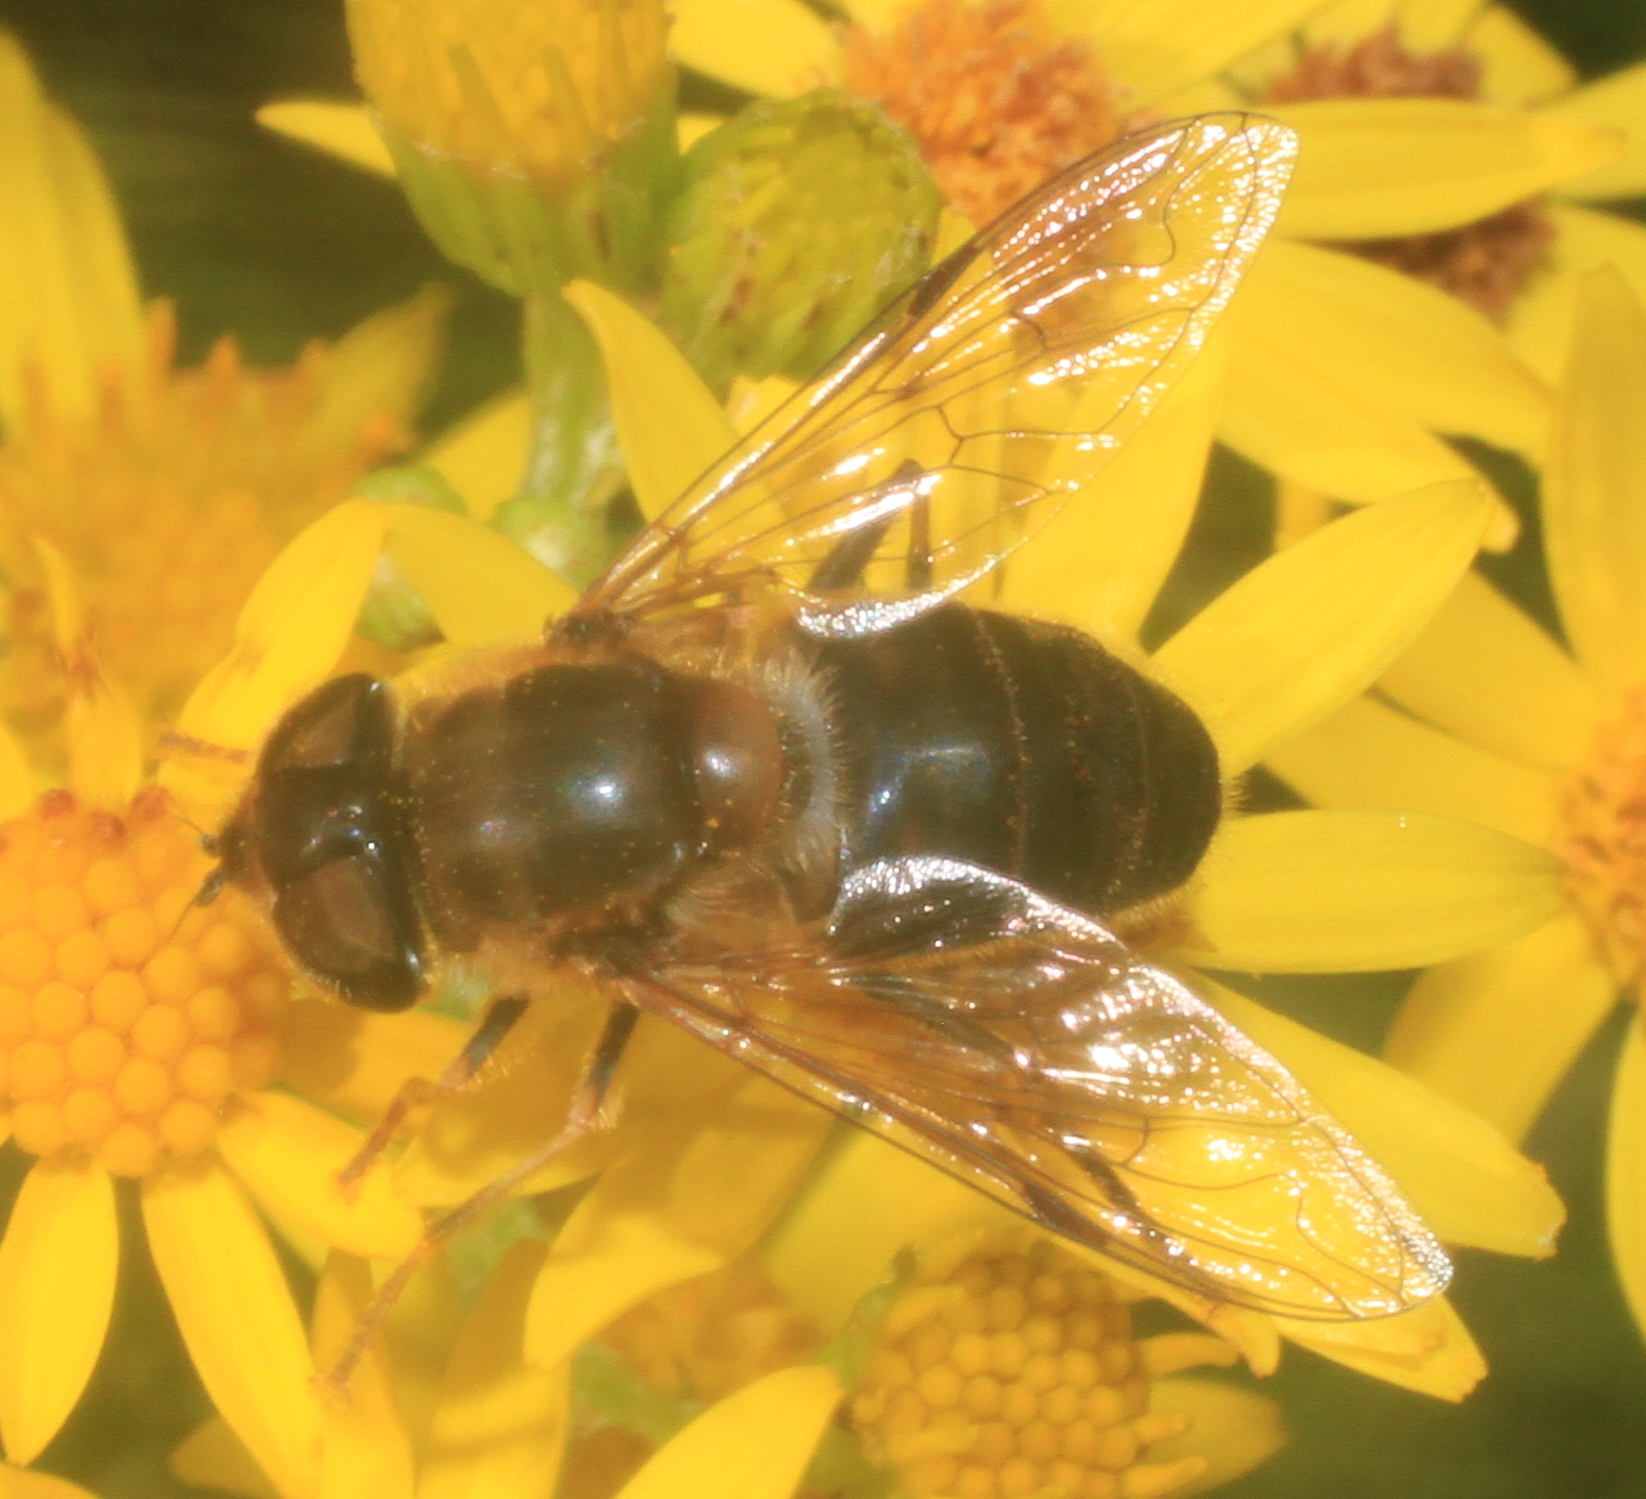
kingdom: Animalia
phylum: Arthropoda
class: Insecta
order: Diptera
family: Syrphidae
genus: Eristalis
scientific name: Eristalis pertinax
